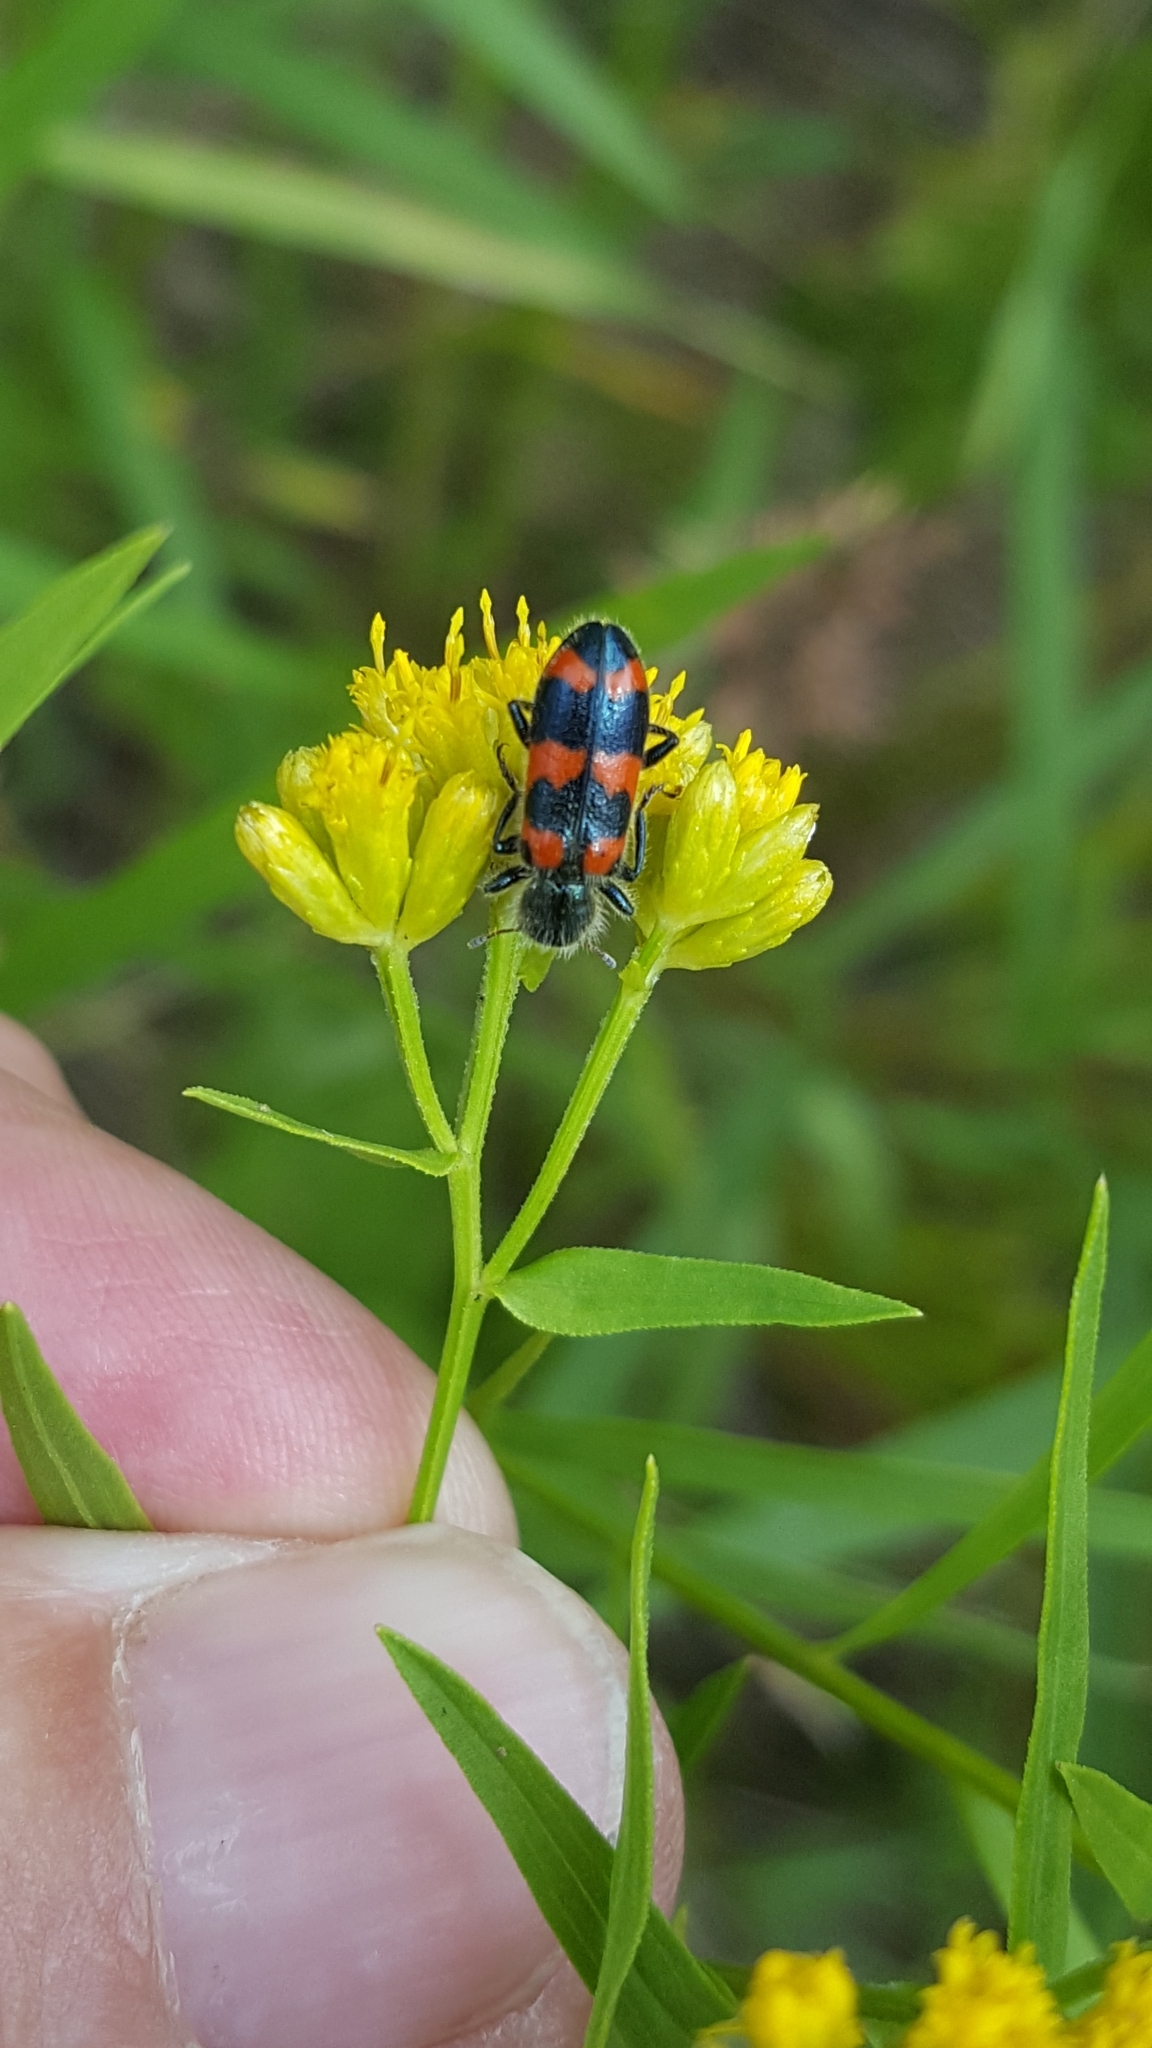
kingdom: Animalia
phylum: Arthropoda
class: Insecta
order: Coleoptera
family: Cleridae
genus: Trichodes
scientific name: Trichodes nutalli
